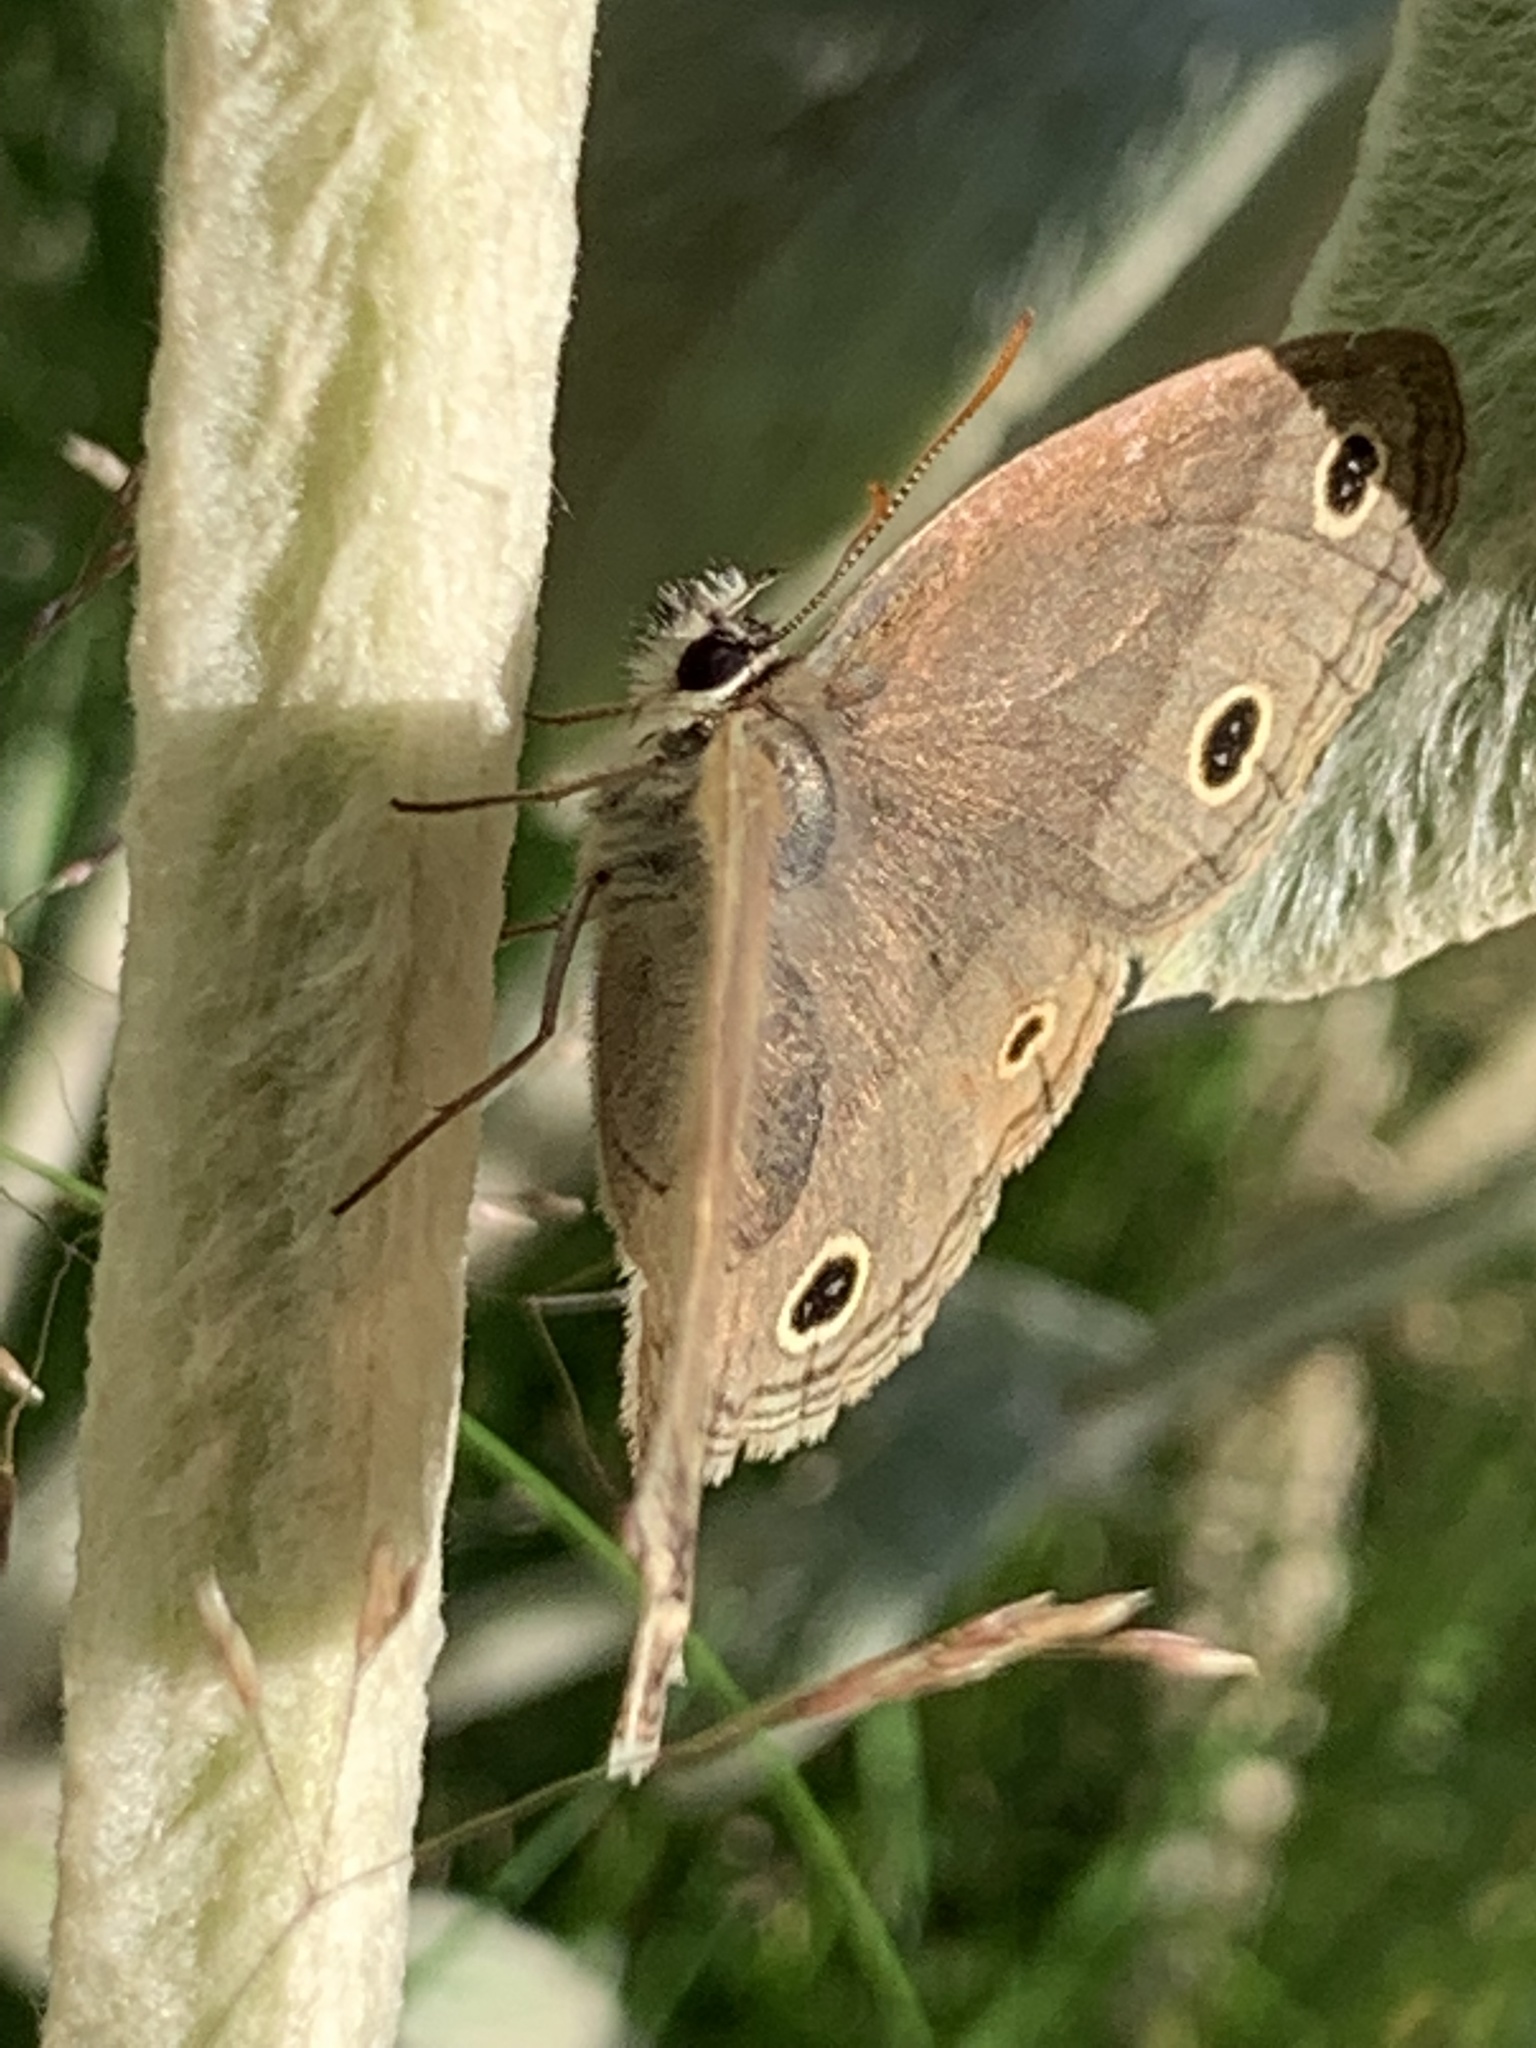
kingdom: Animalia
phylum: Arthropoda
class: Insecta
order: Lepidoptera
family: Nymphalidae
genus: Euptychia
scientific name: Euptychia cymela
